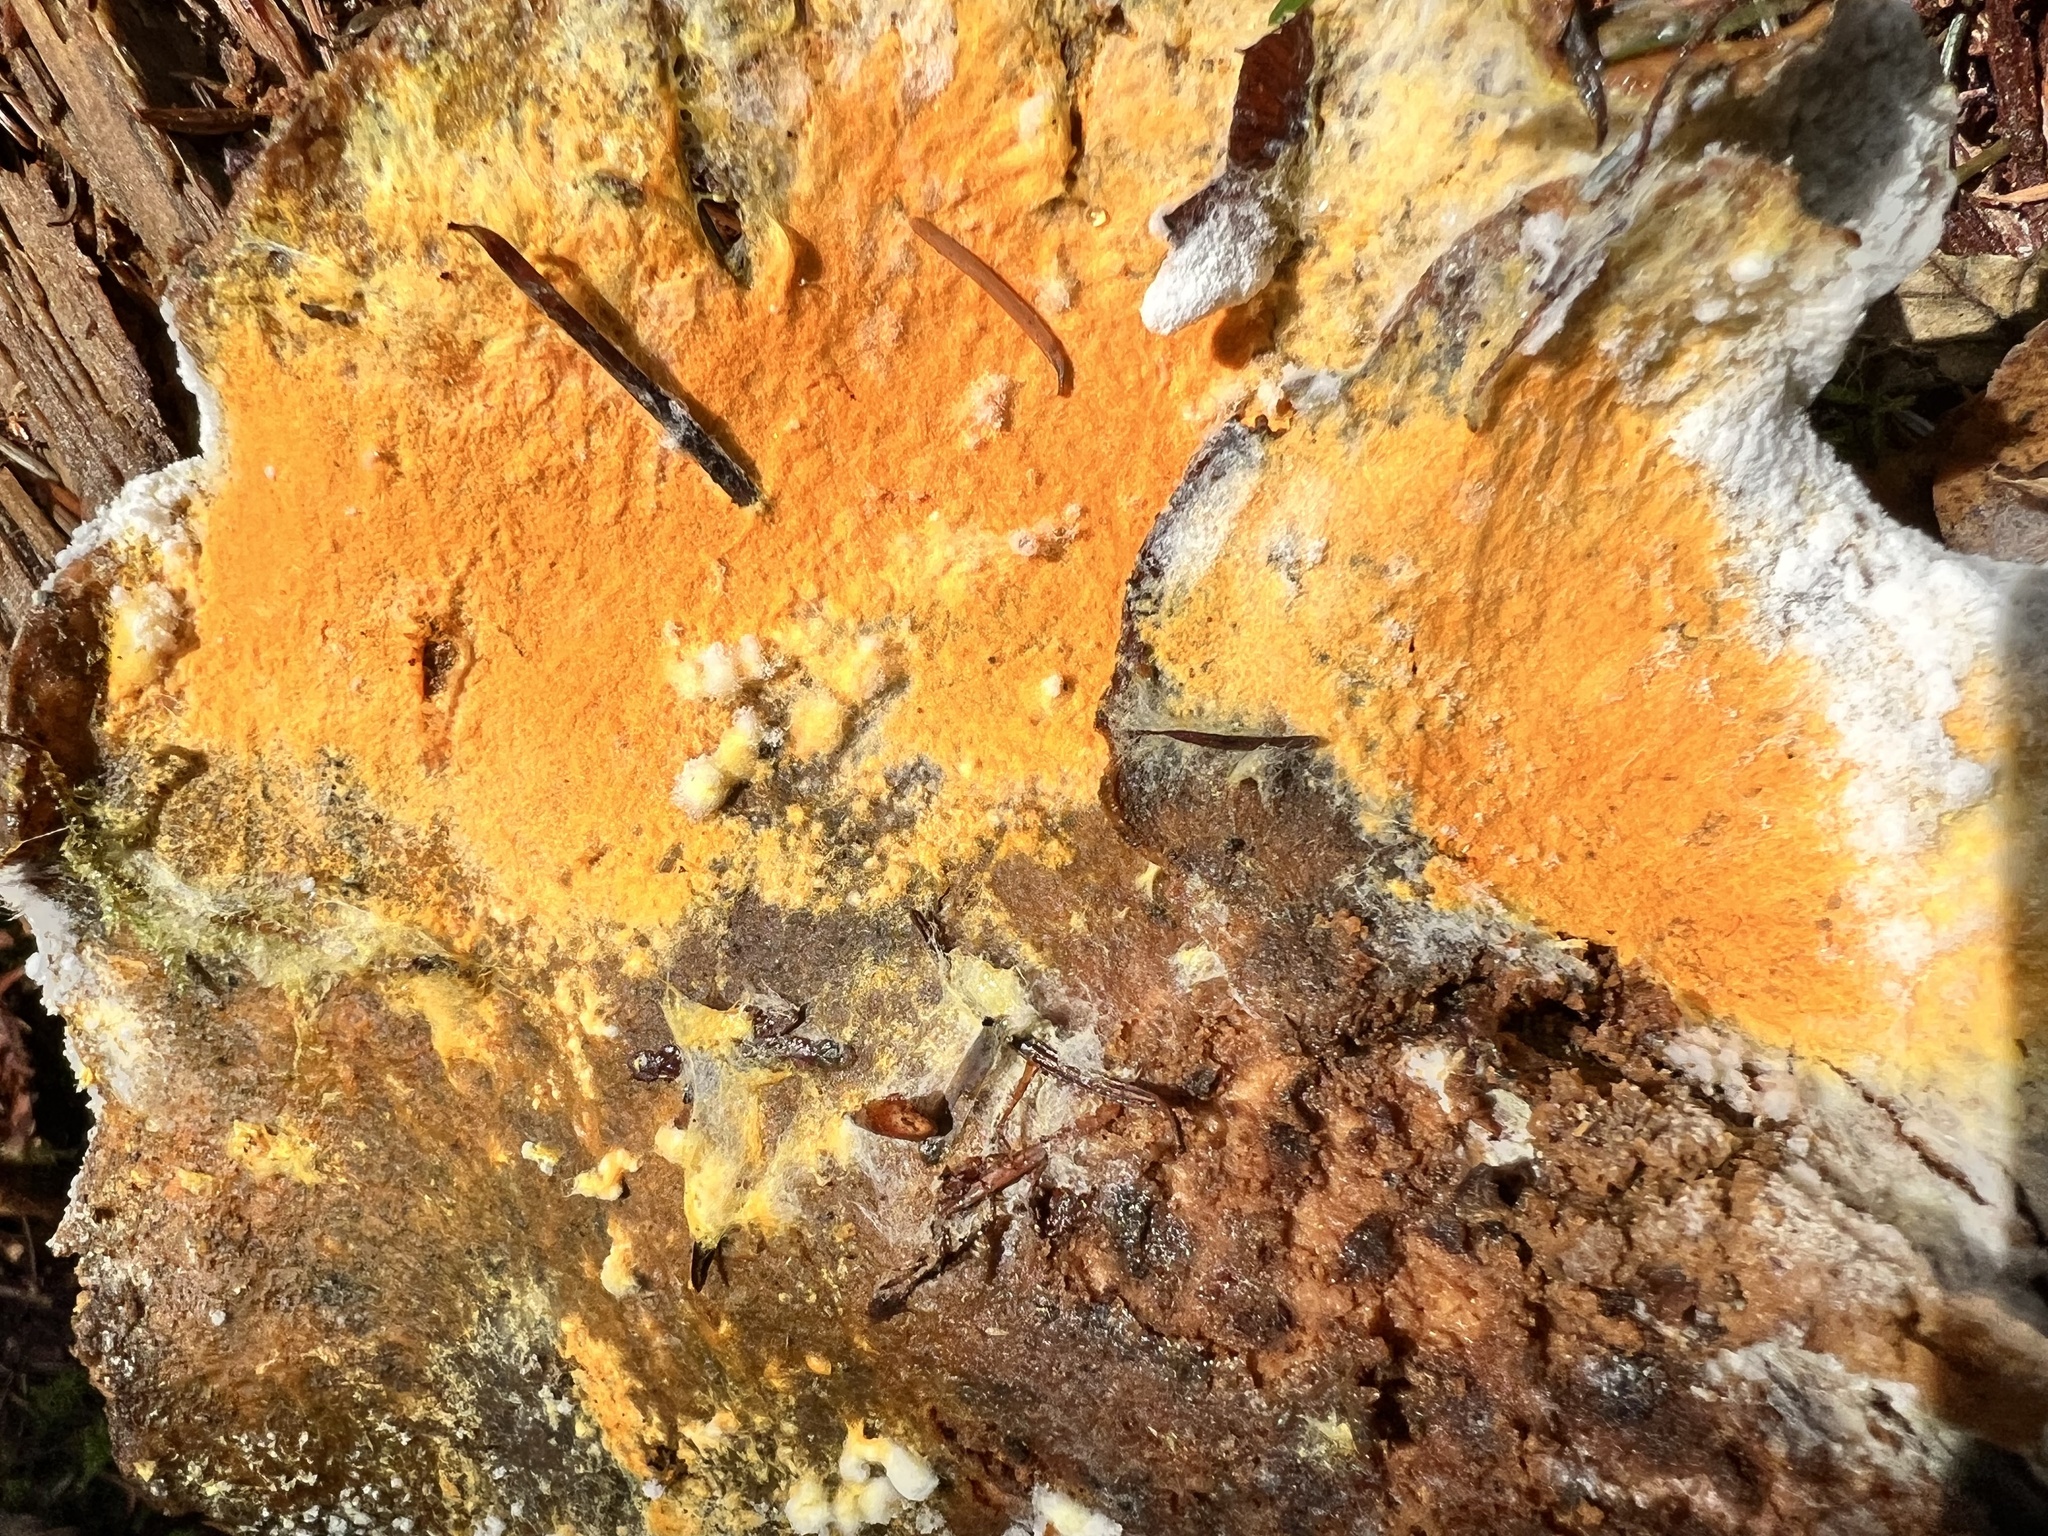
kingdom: Fungi
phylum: Ascomycota
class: Sordariomycetes
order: Hypocreales
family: Hypocreaceae
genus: Hypomyces
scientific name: Hypomyces aurantius
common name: Orange polypore mould
